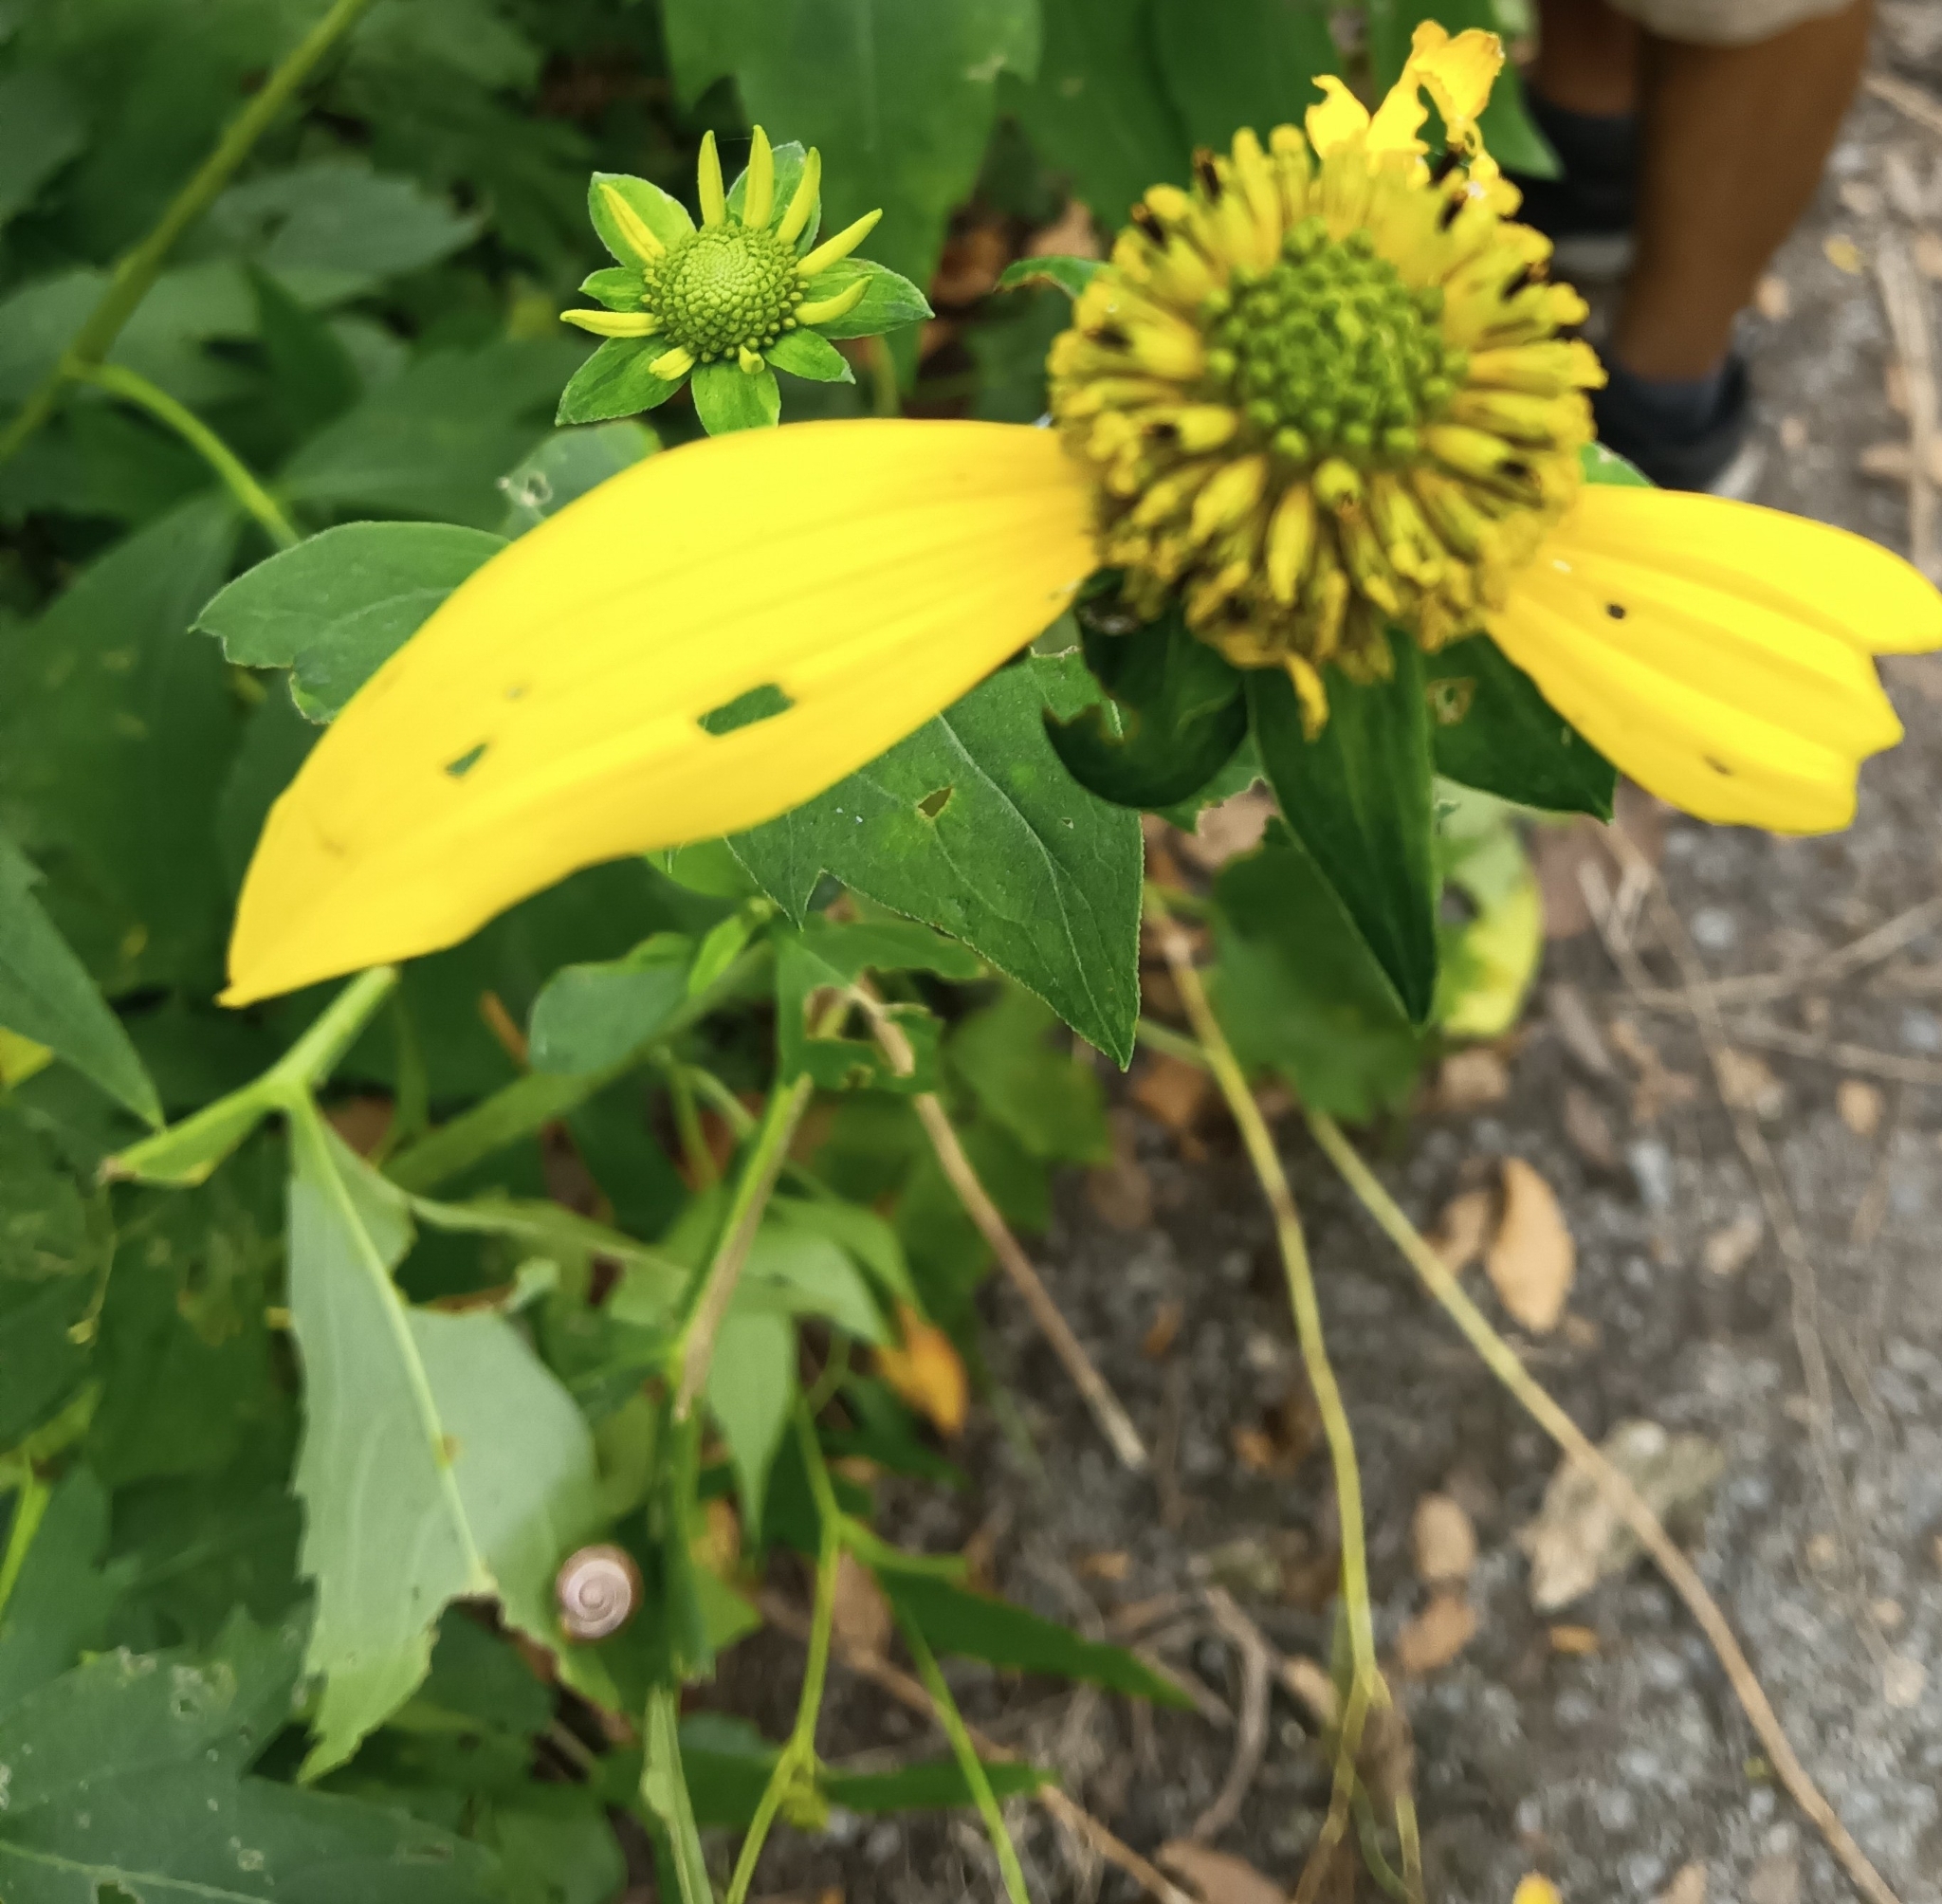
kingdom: Plantae
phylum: Tracheophyta
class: Magnoliopsida
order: Asterales
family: Asteraceae
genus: Rudbeckia
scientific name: Rudbeckia laciniata
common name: Coneflower
